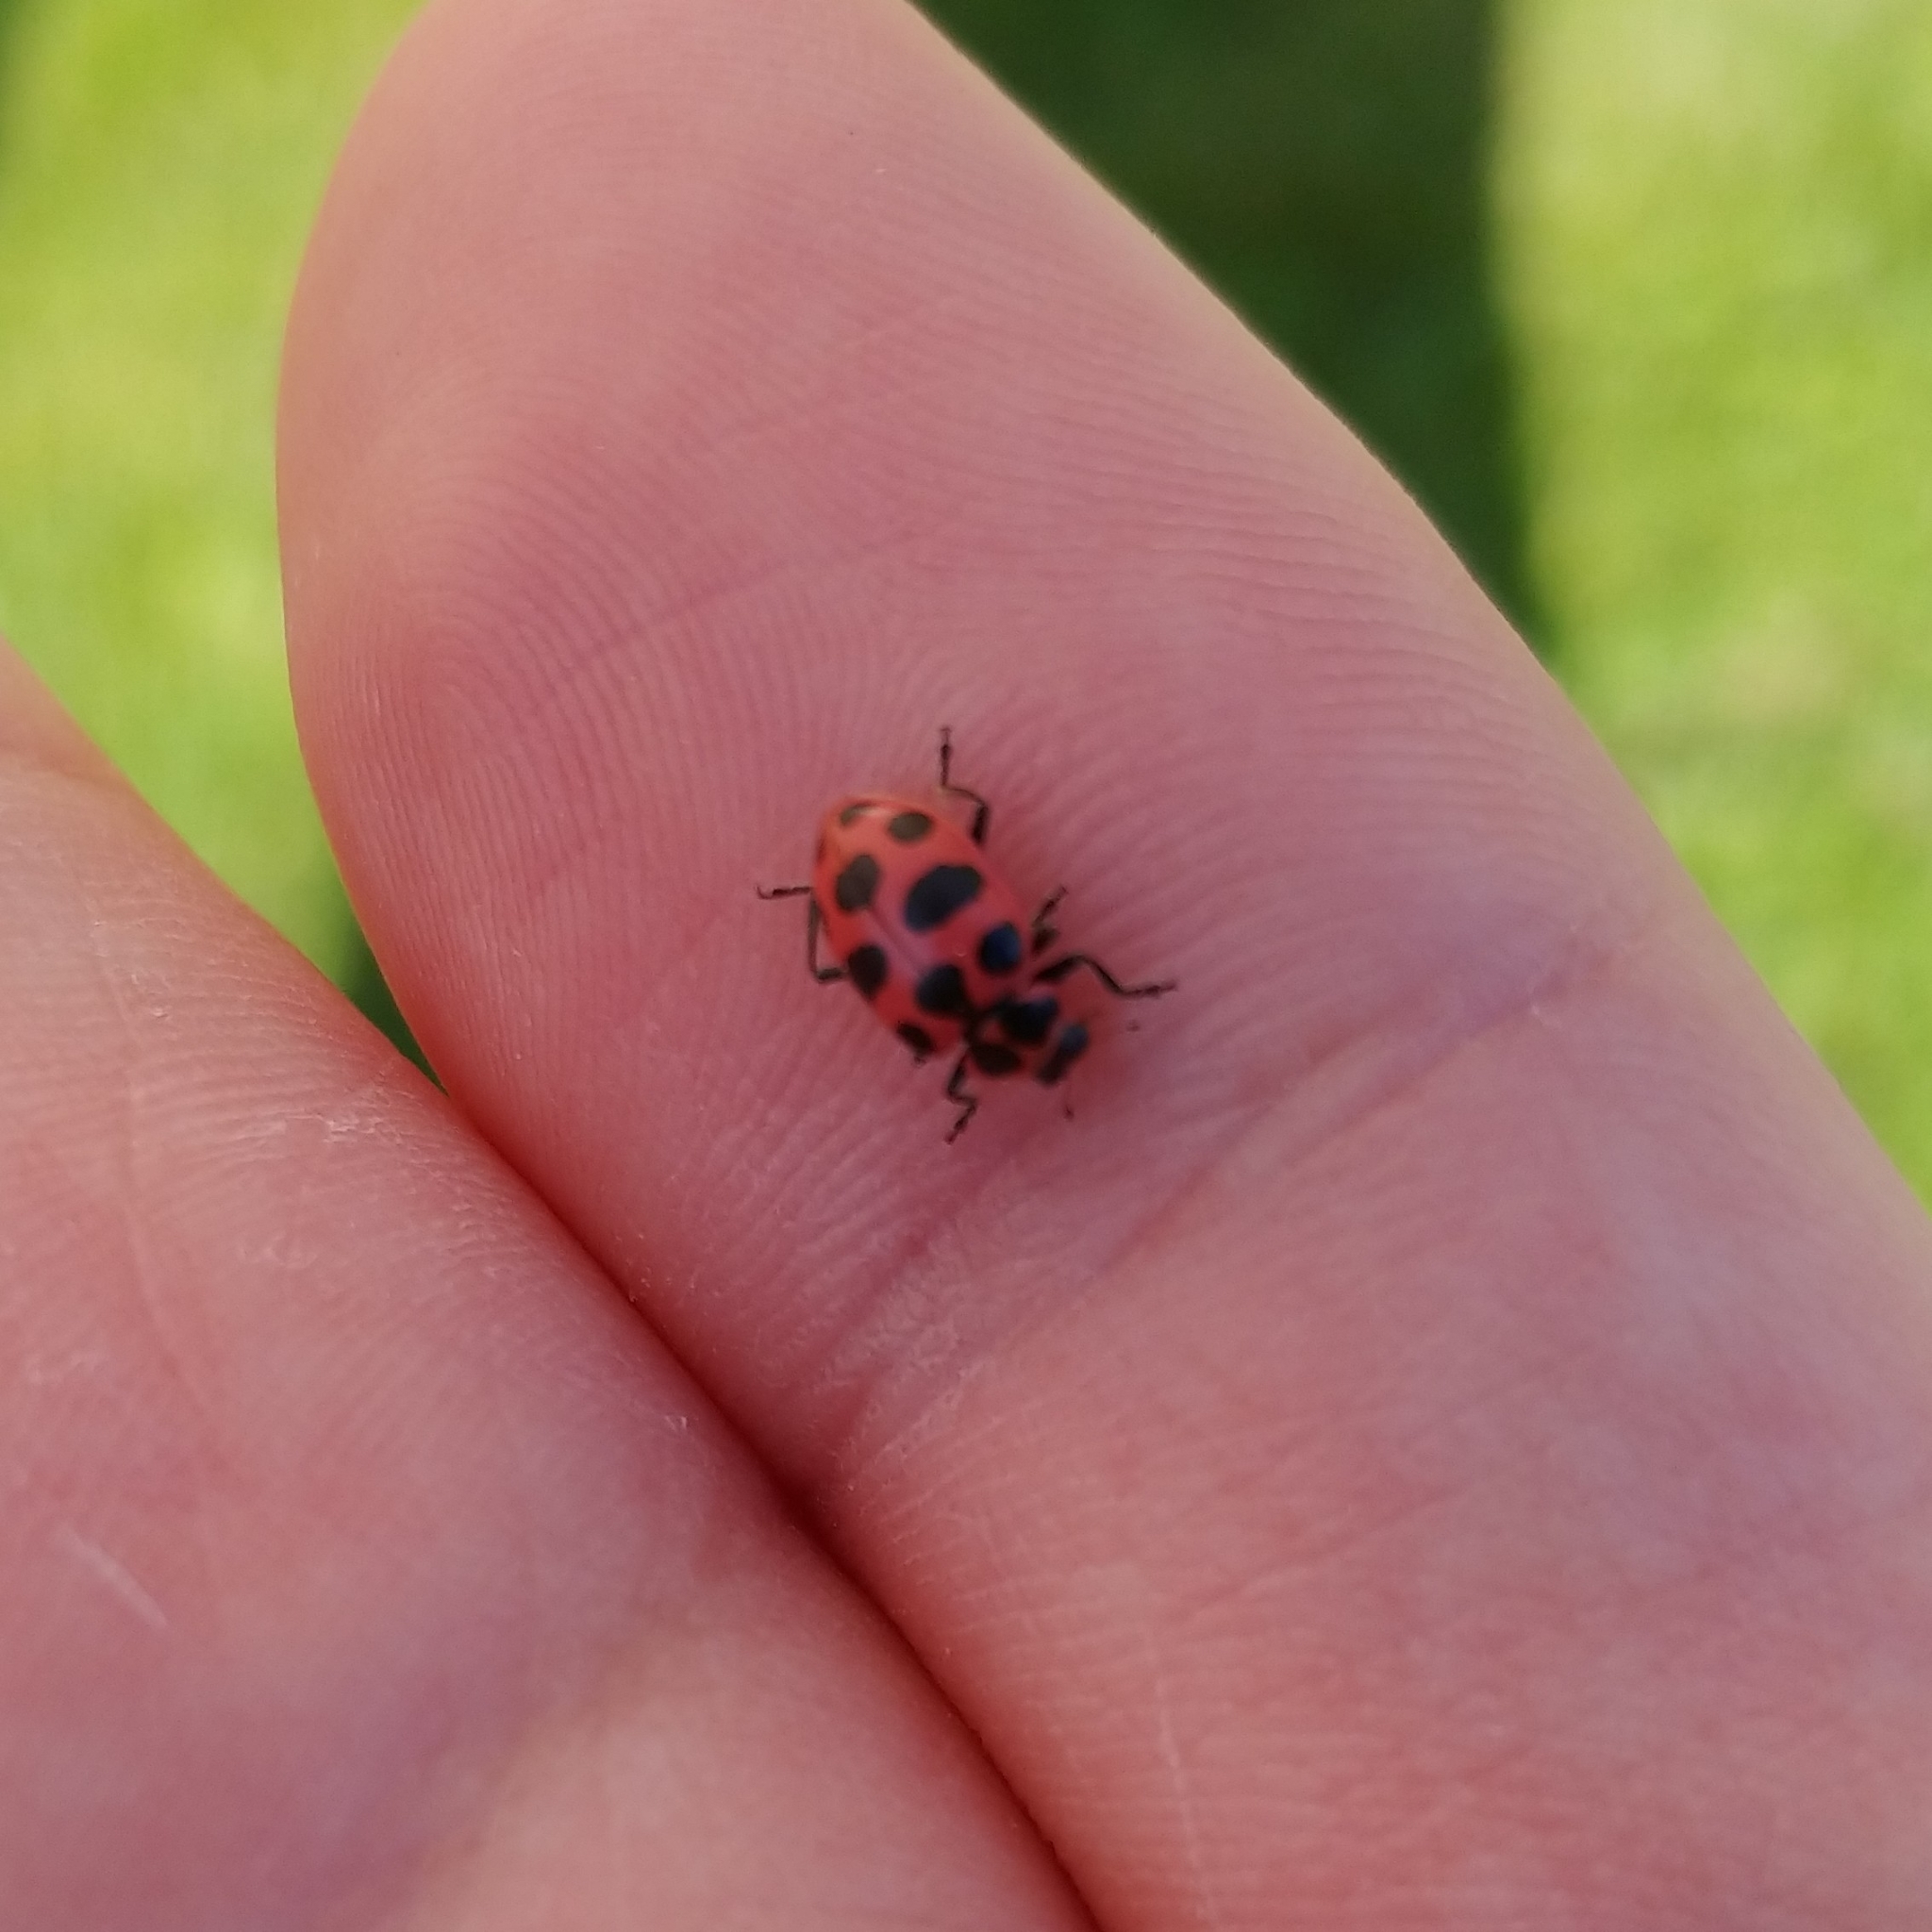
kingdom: Animalia
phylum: Arthropoda
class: Insecta
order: Coleoptera
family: Coccinellidae
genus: Coleomegilla
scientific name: Coleomegilla maculata
